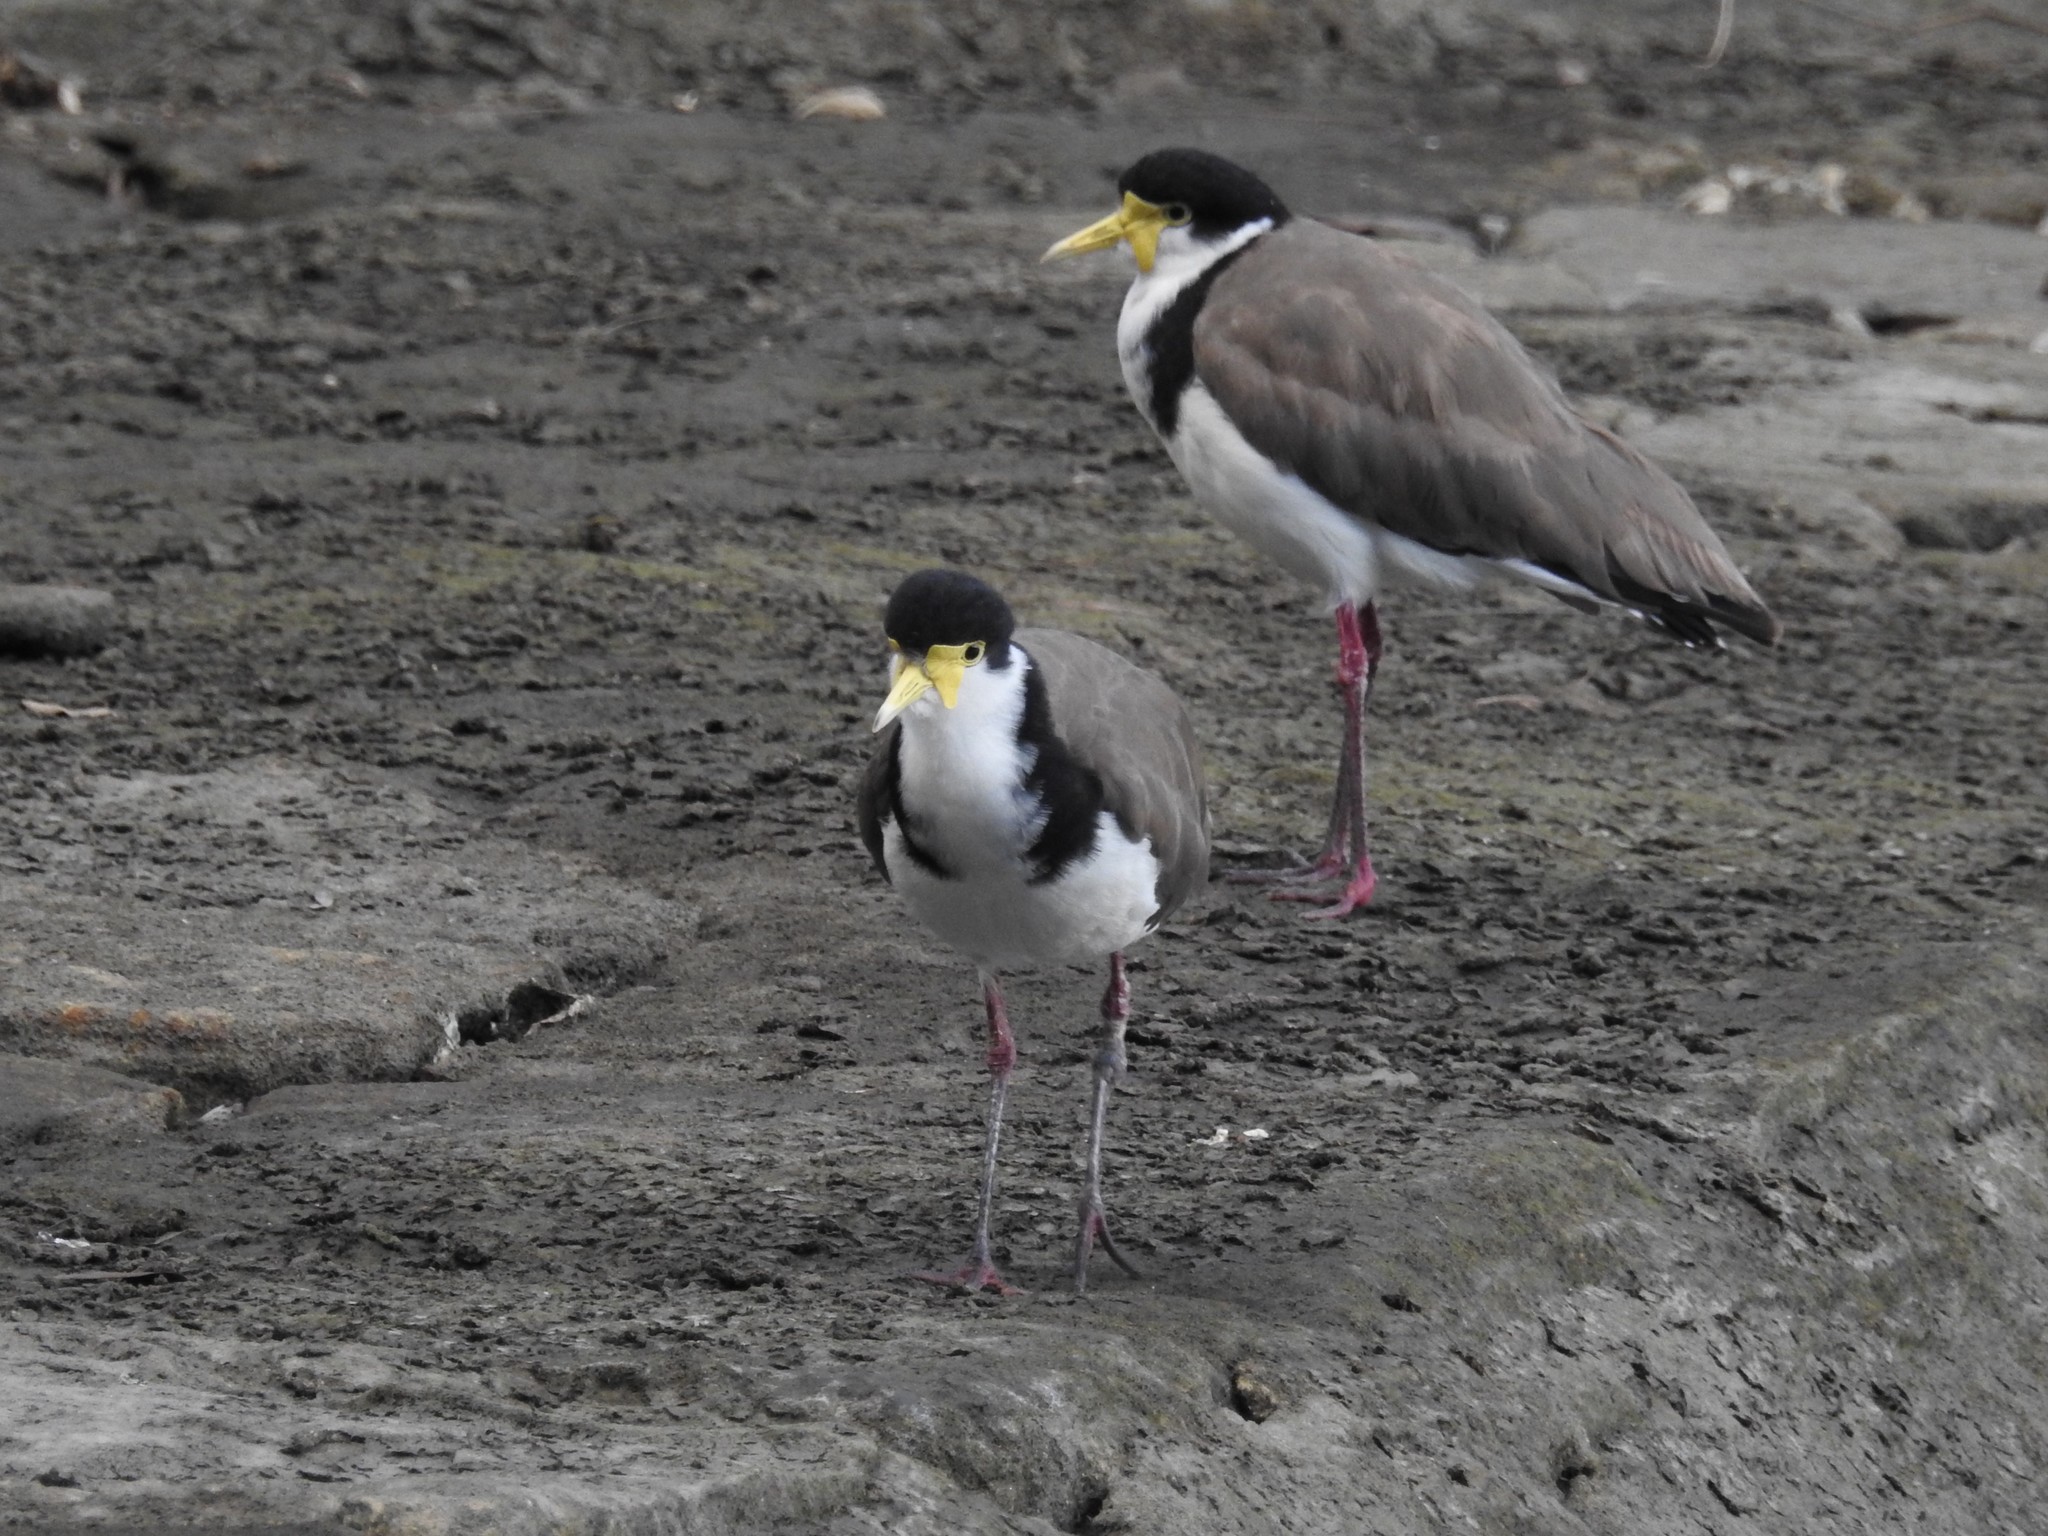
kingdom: Animalia
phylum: Chordata
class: Aves
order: Charadriiformes
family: Charadriidae
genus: Vanellus
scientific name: Vanellus miles
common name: Masked lapwing
